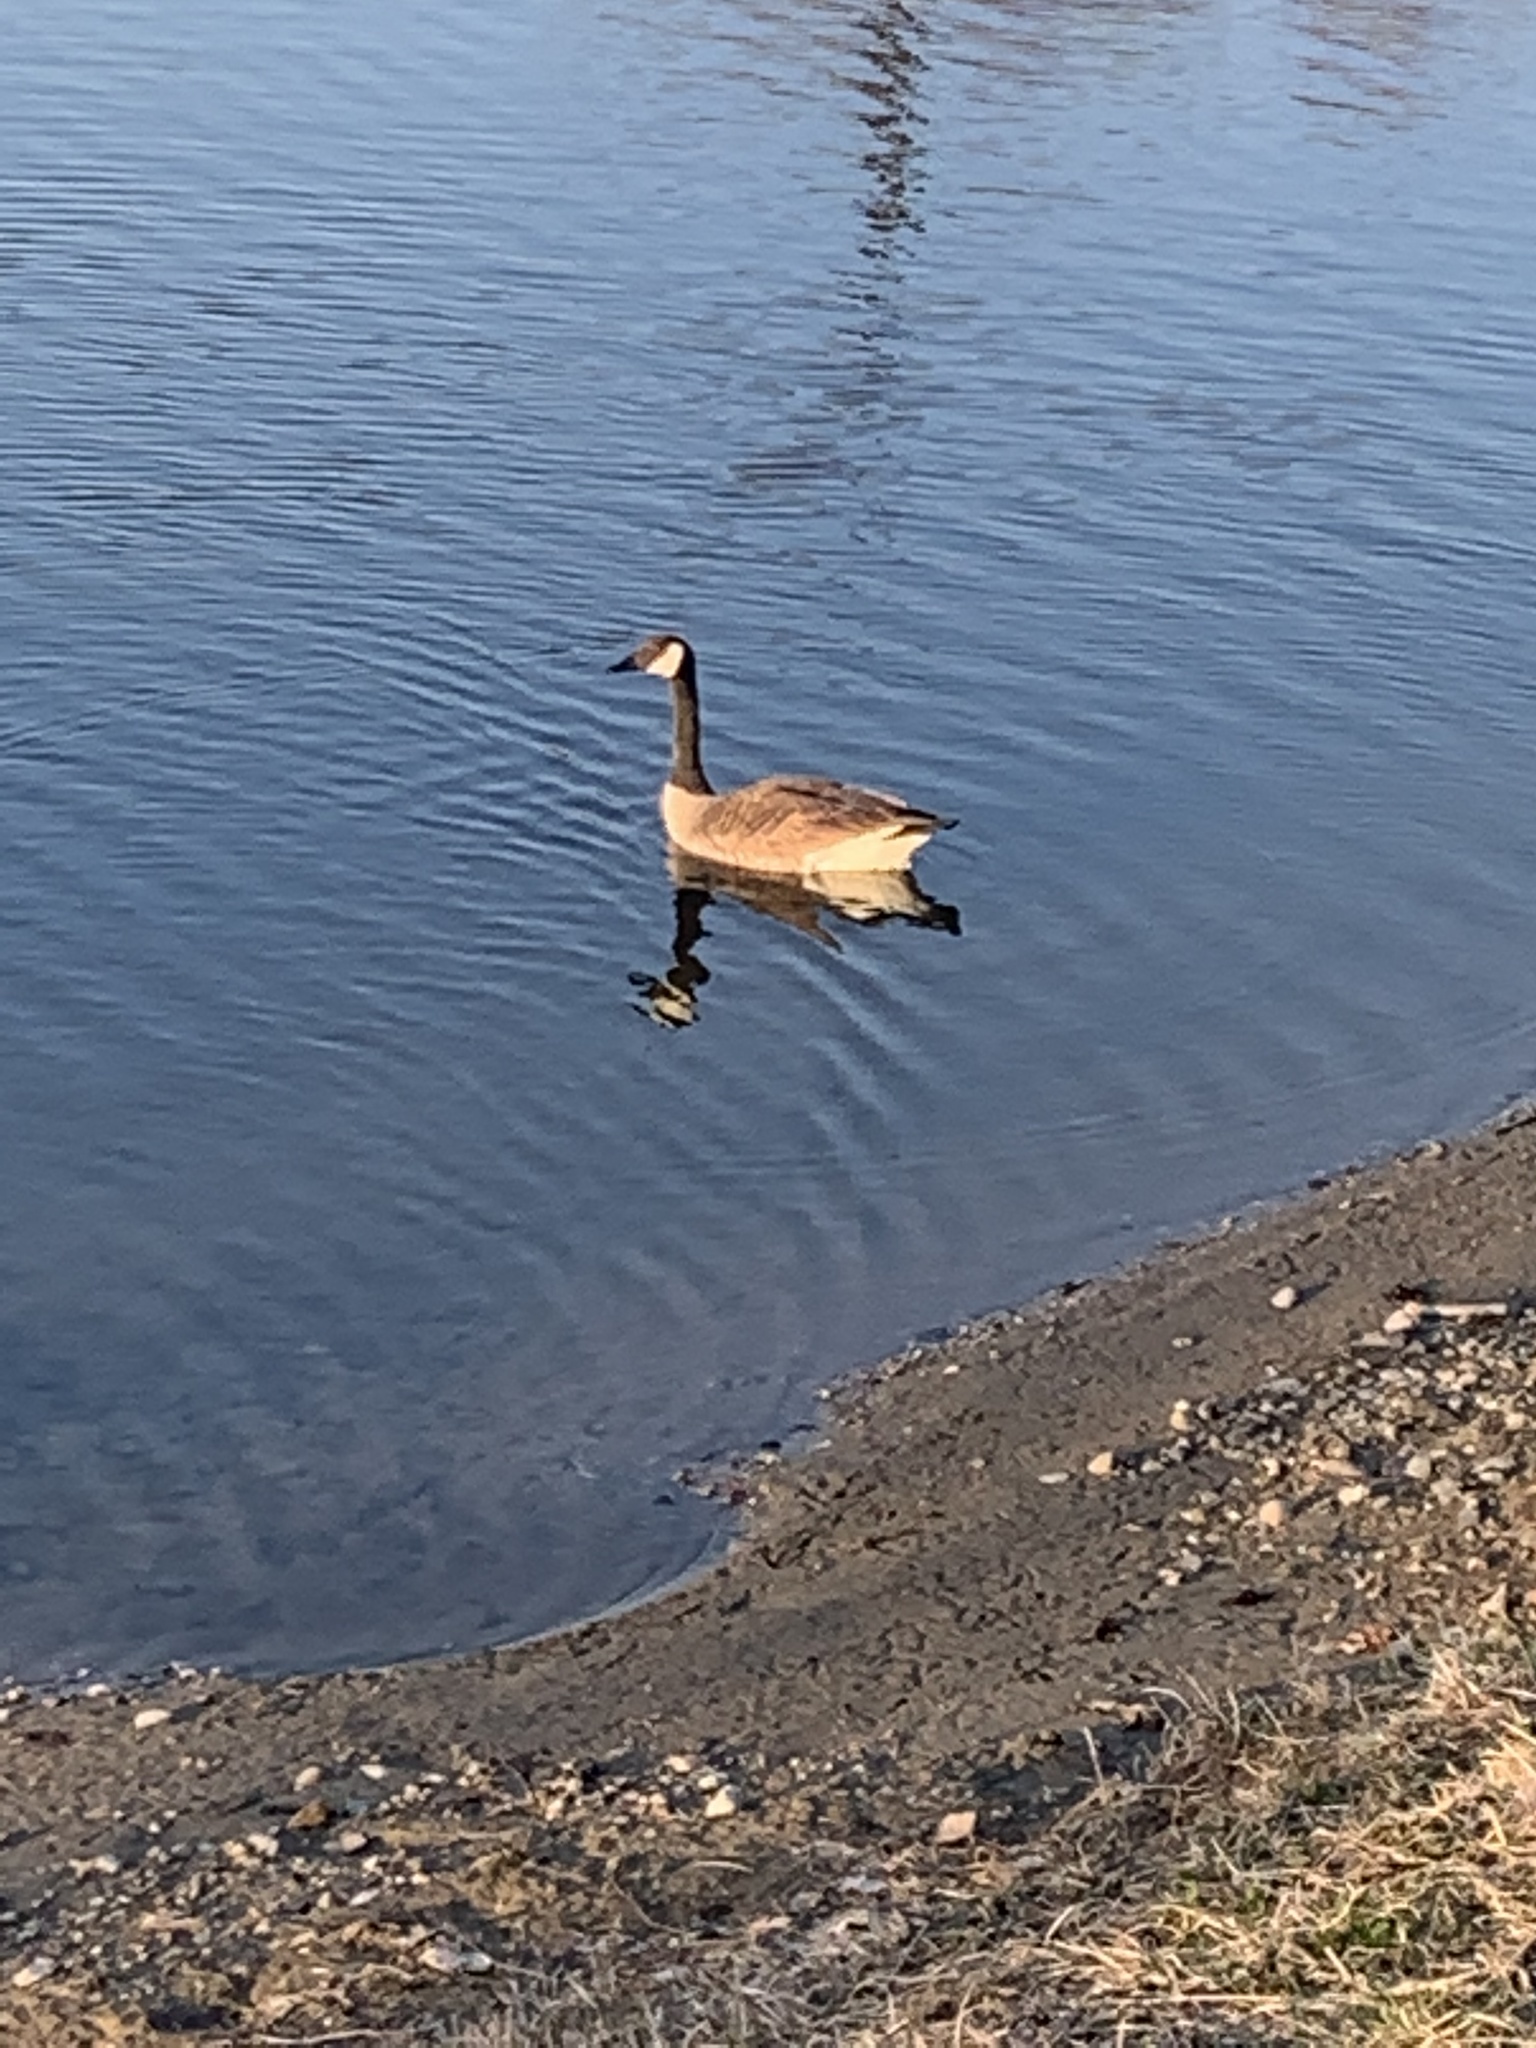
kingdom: Animalia
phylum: Chordata
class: Aves
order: Anseriformes
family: Anatidae
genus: Branta
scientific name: Branta canadensis
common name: Canada goose
